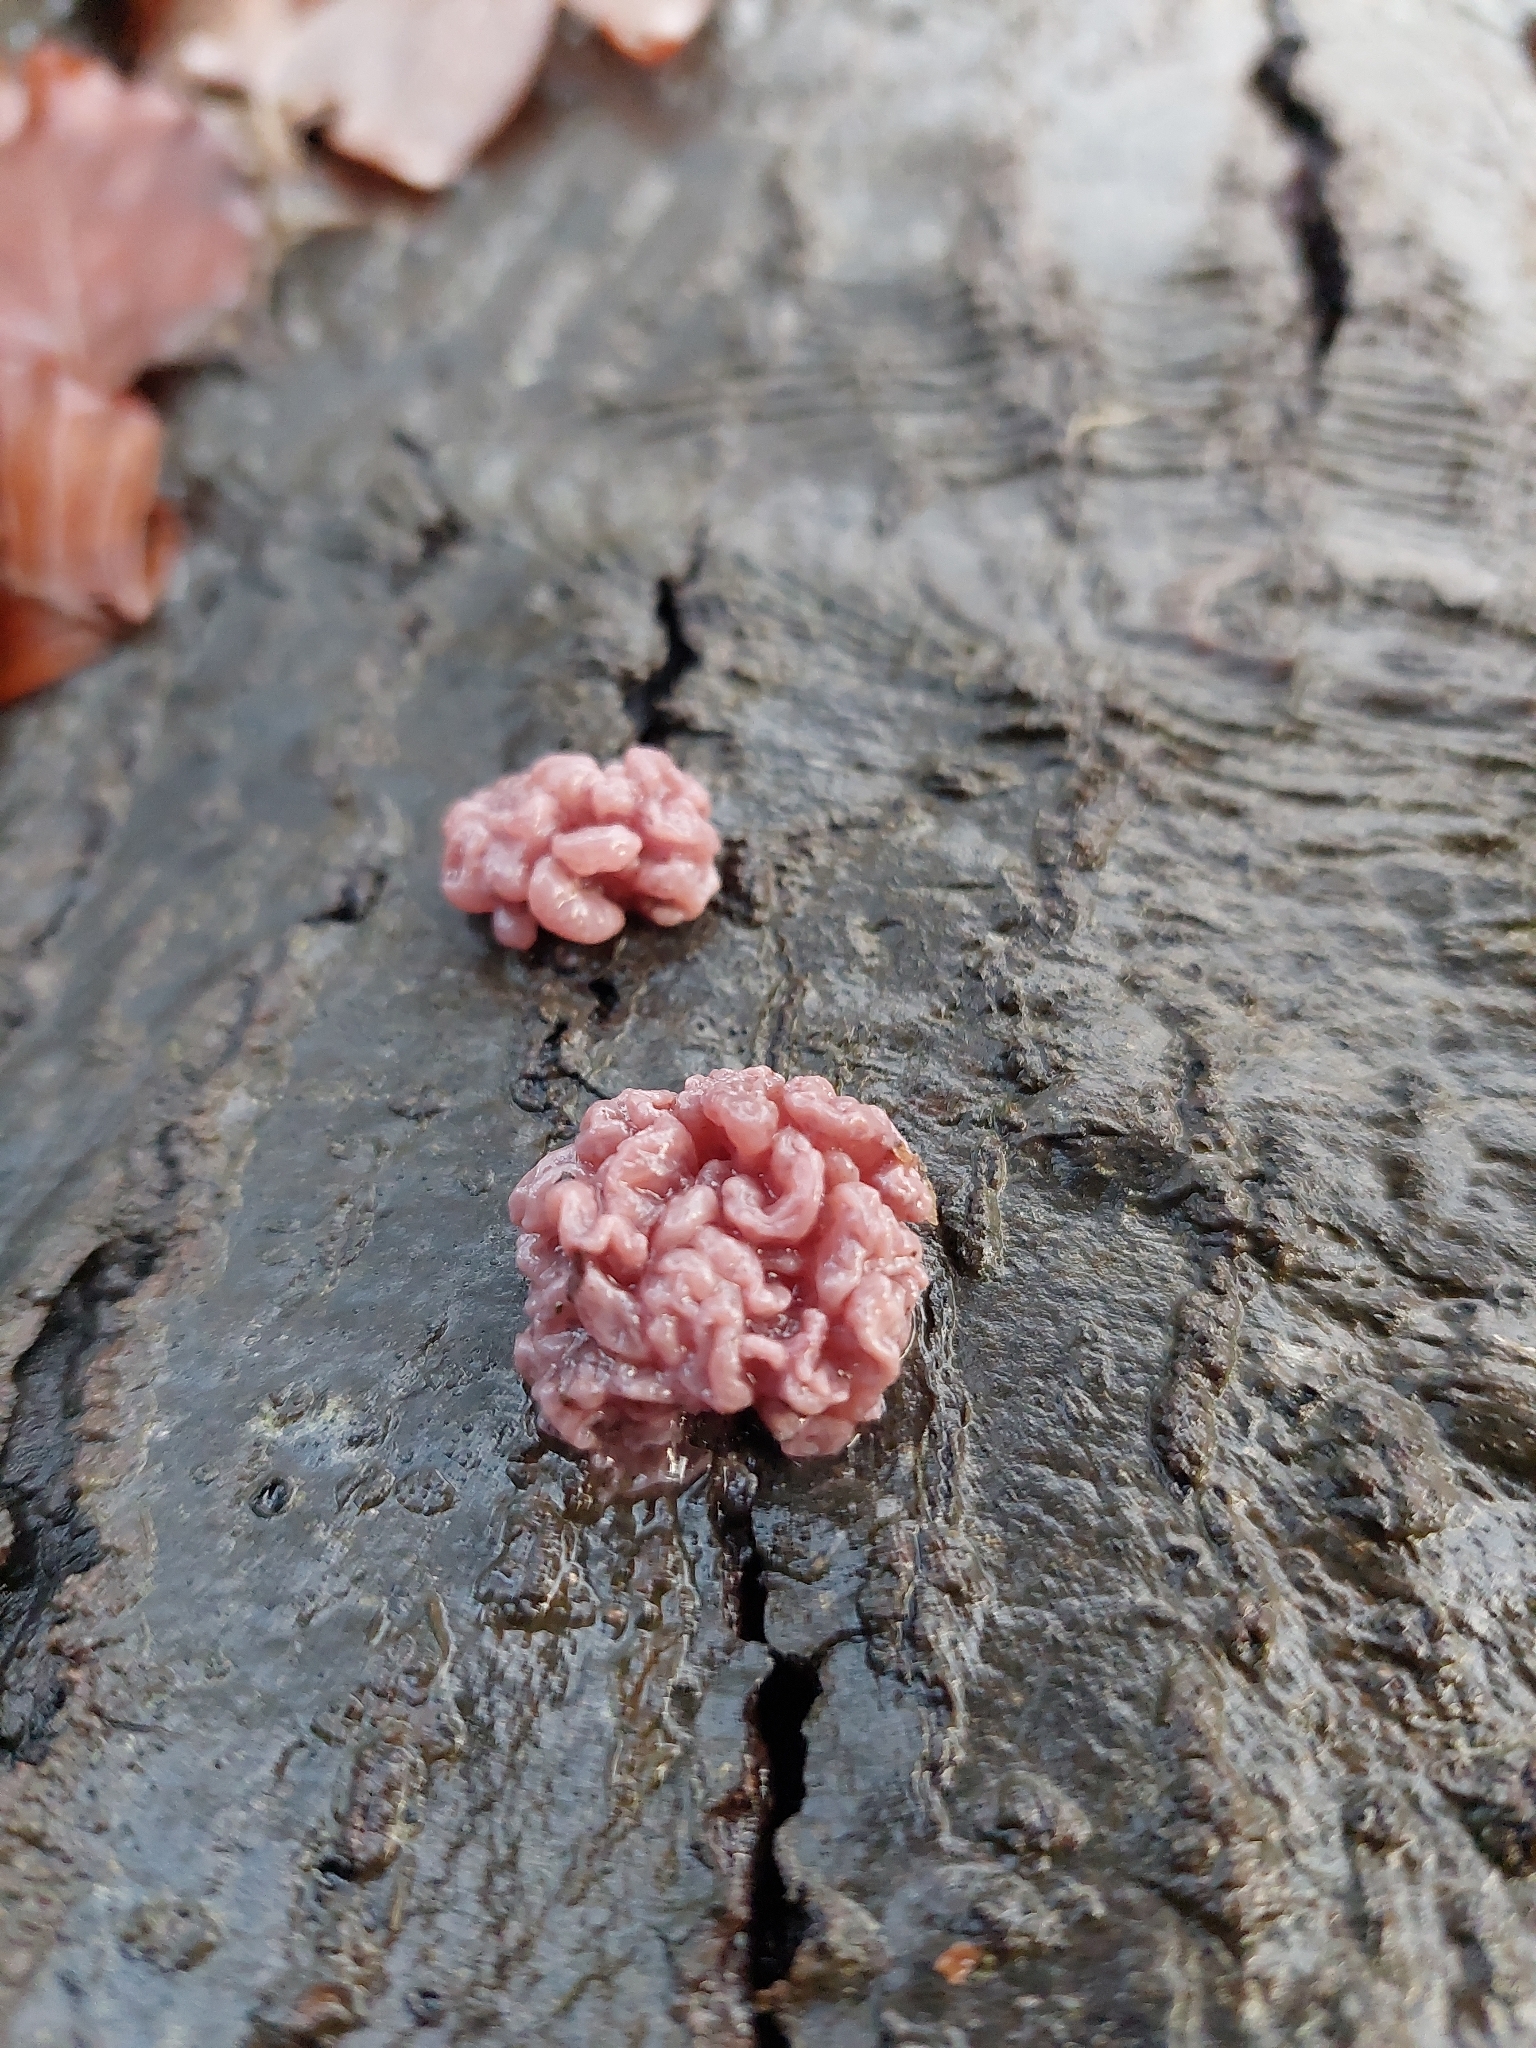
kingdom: Fungi
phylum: Ascomycota
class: Leotiomycetes
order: Helotiales
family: Gelatinodiscaceae
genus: Ascocoryne
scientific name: Ascocoryne sarcoides
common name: Purple jellydisc
